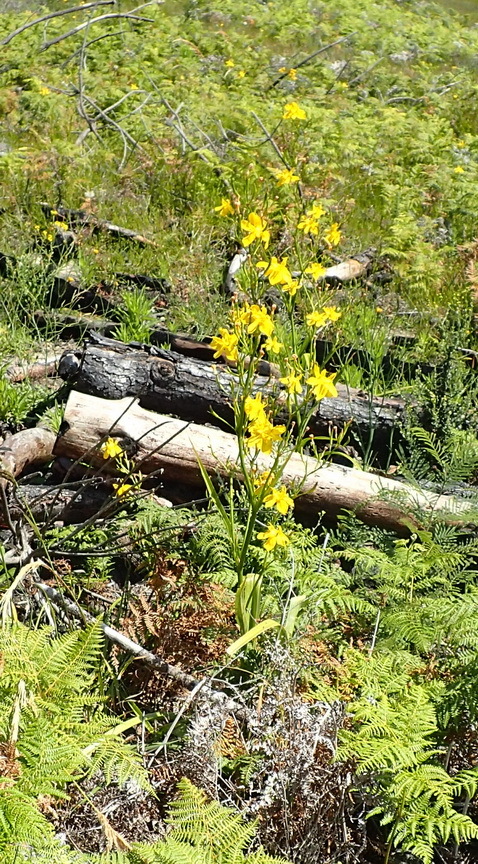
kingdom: Plantae
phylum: Tracheophyta
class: Liliopsida
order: Asparagales
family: Iridaceae
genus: Moraea
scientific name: Moraea ramosissima
